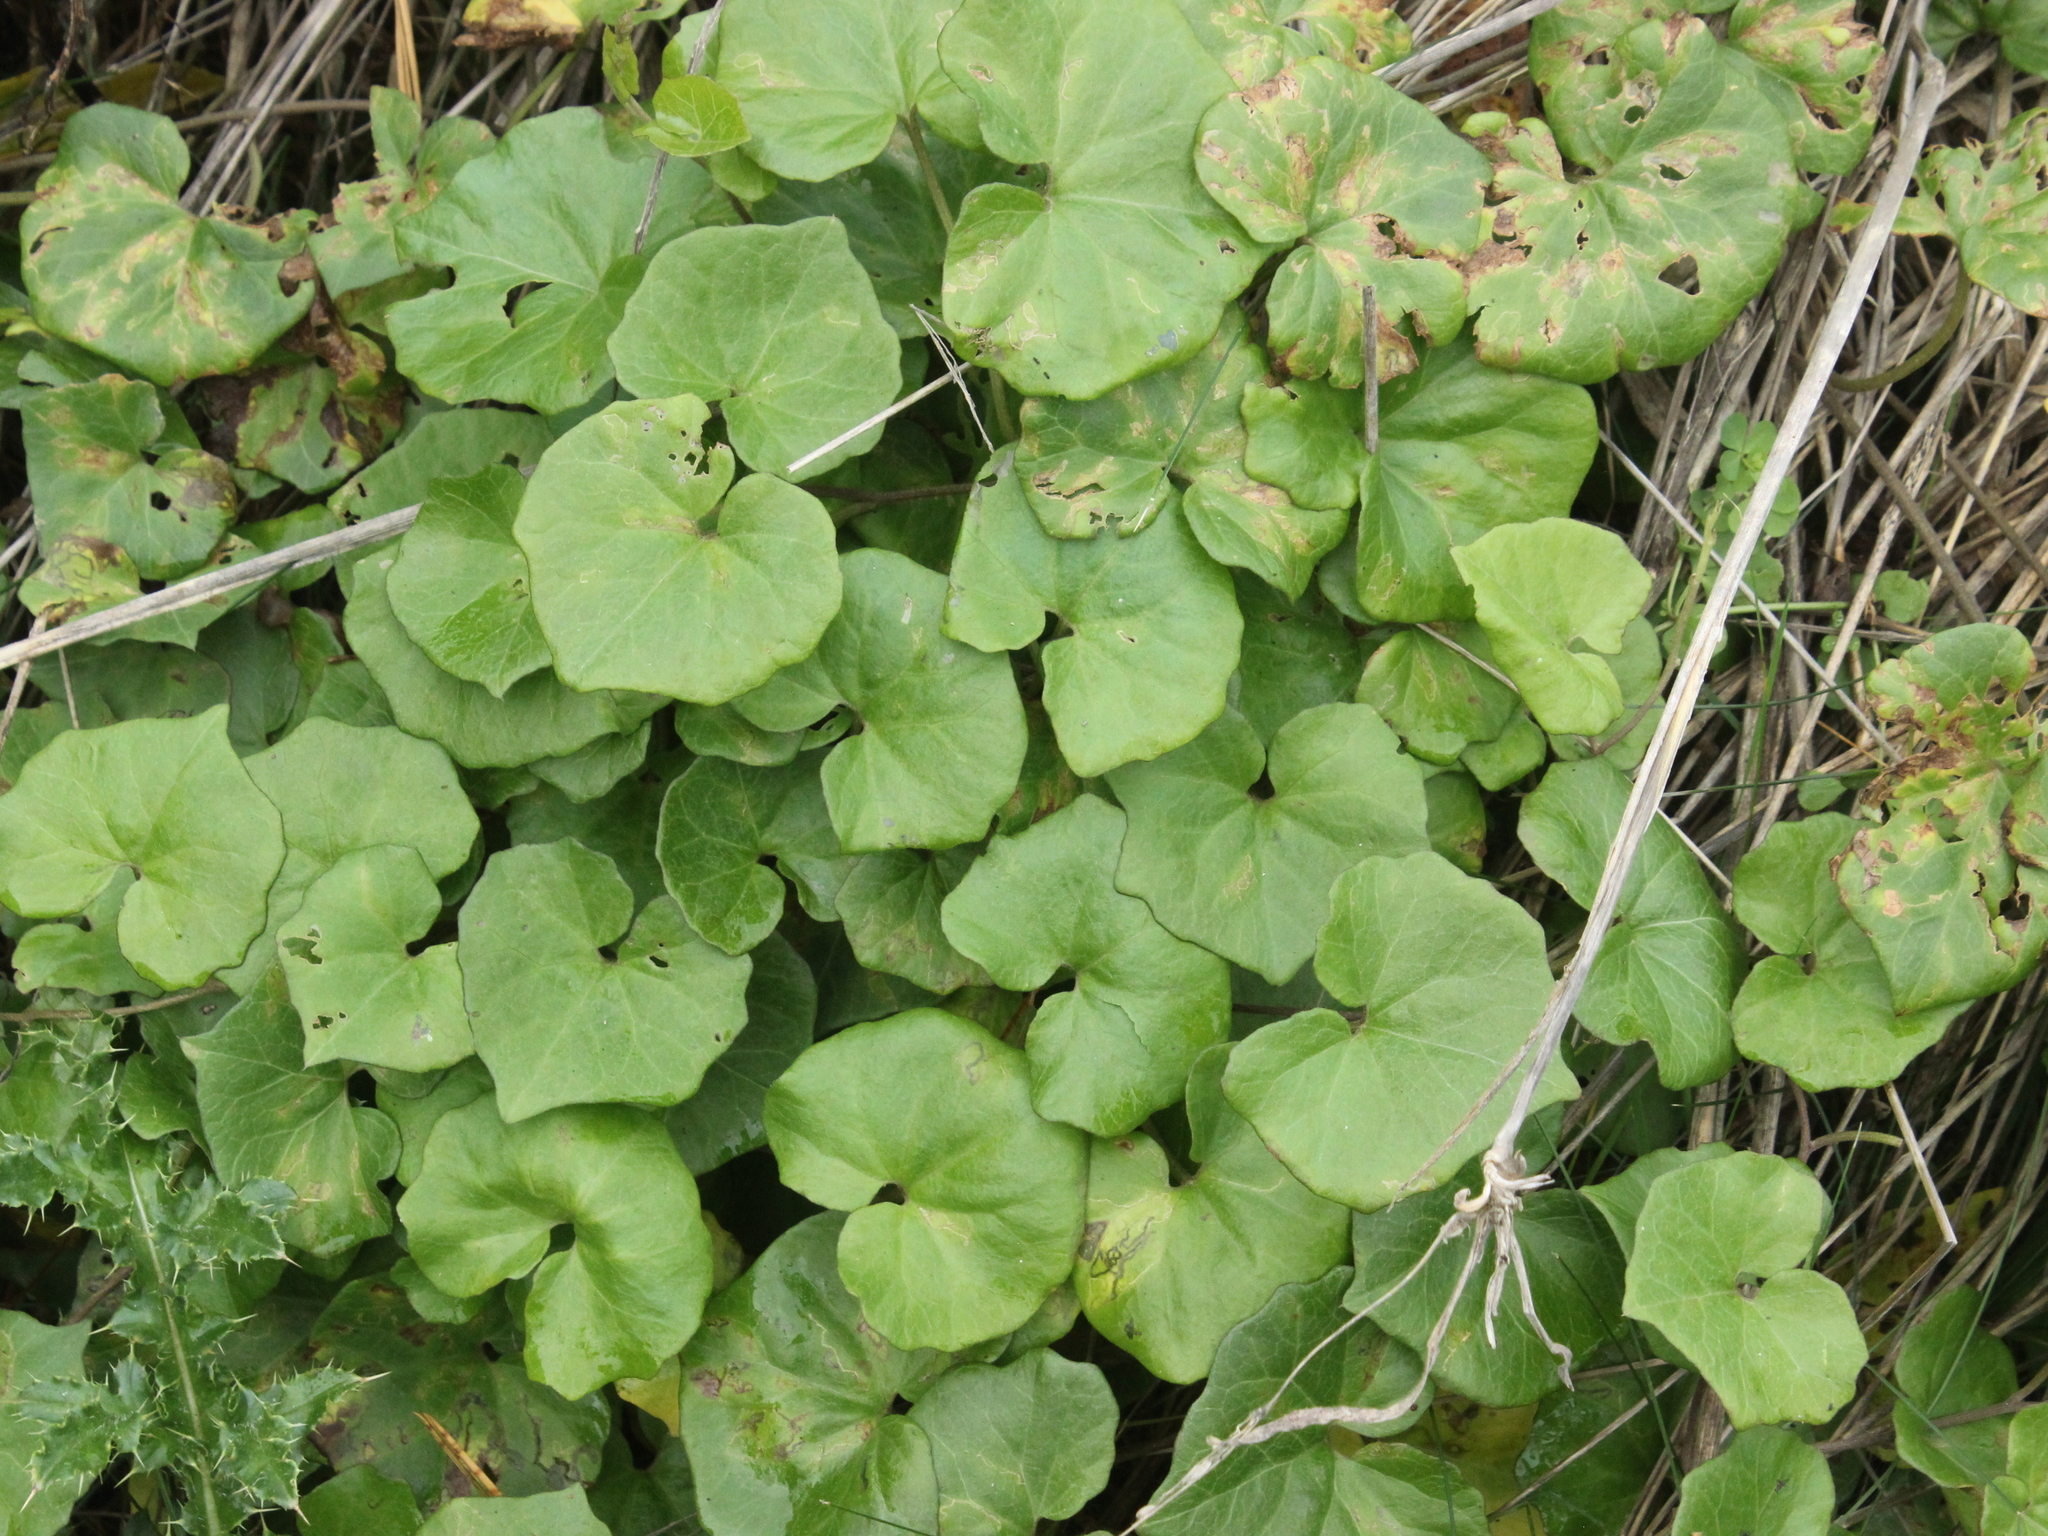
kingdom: Plantae
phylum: Tracheophyta
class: Magnoliopsida
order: Solanales
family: Convolvulaceae
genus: Calystegia
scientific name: Calystegia tuguriorum
